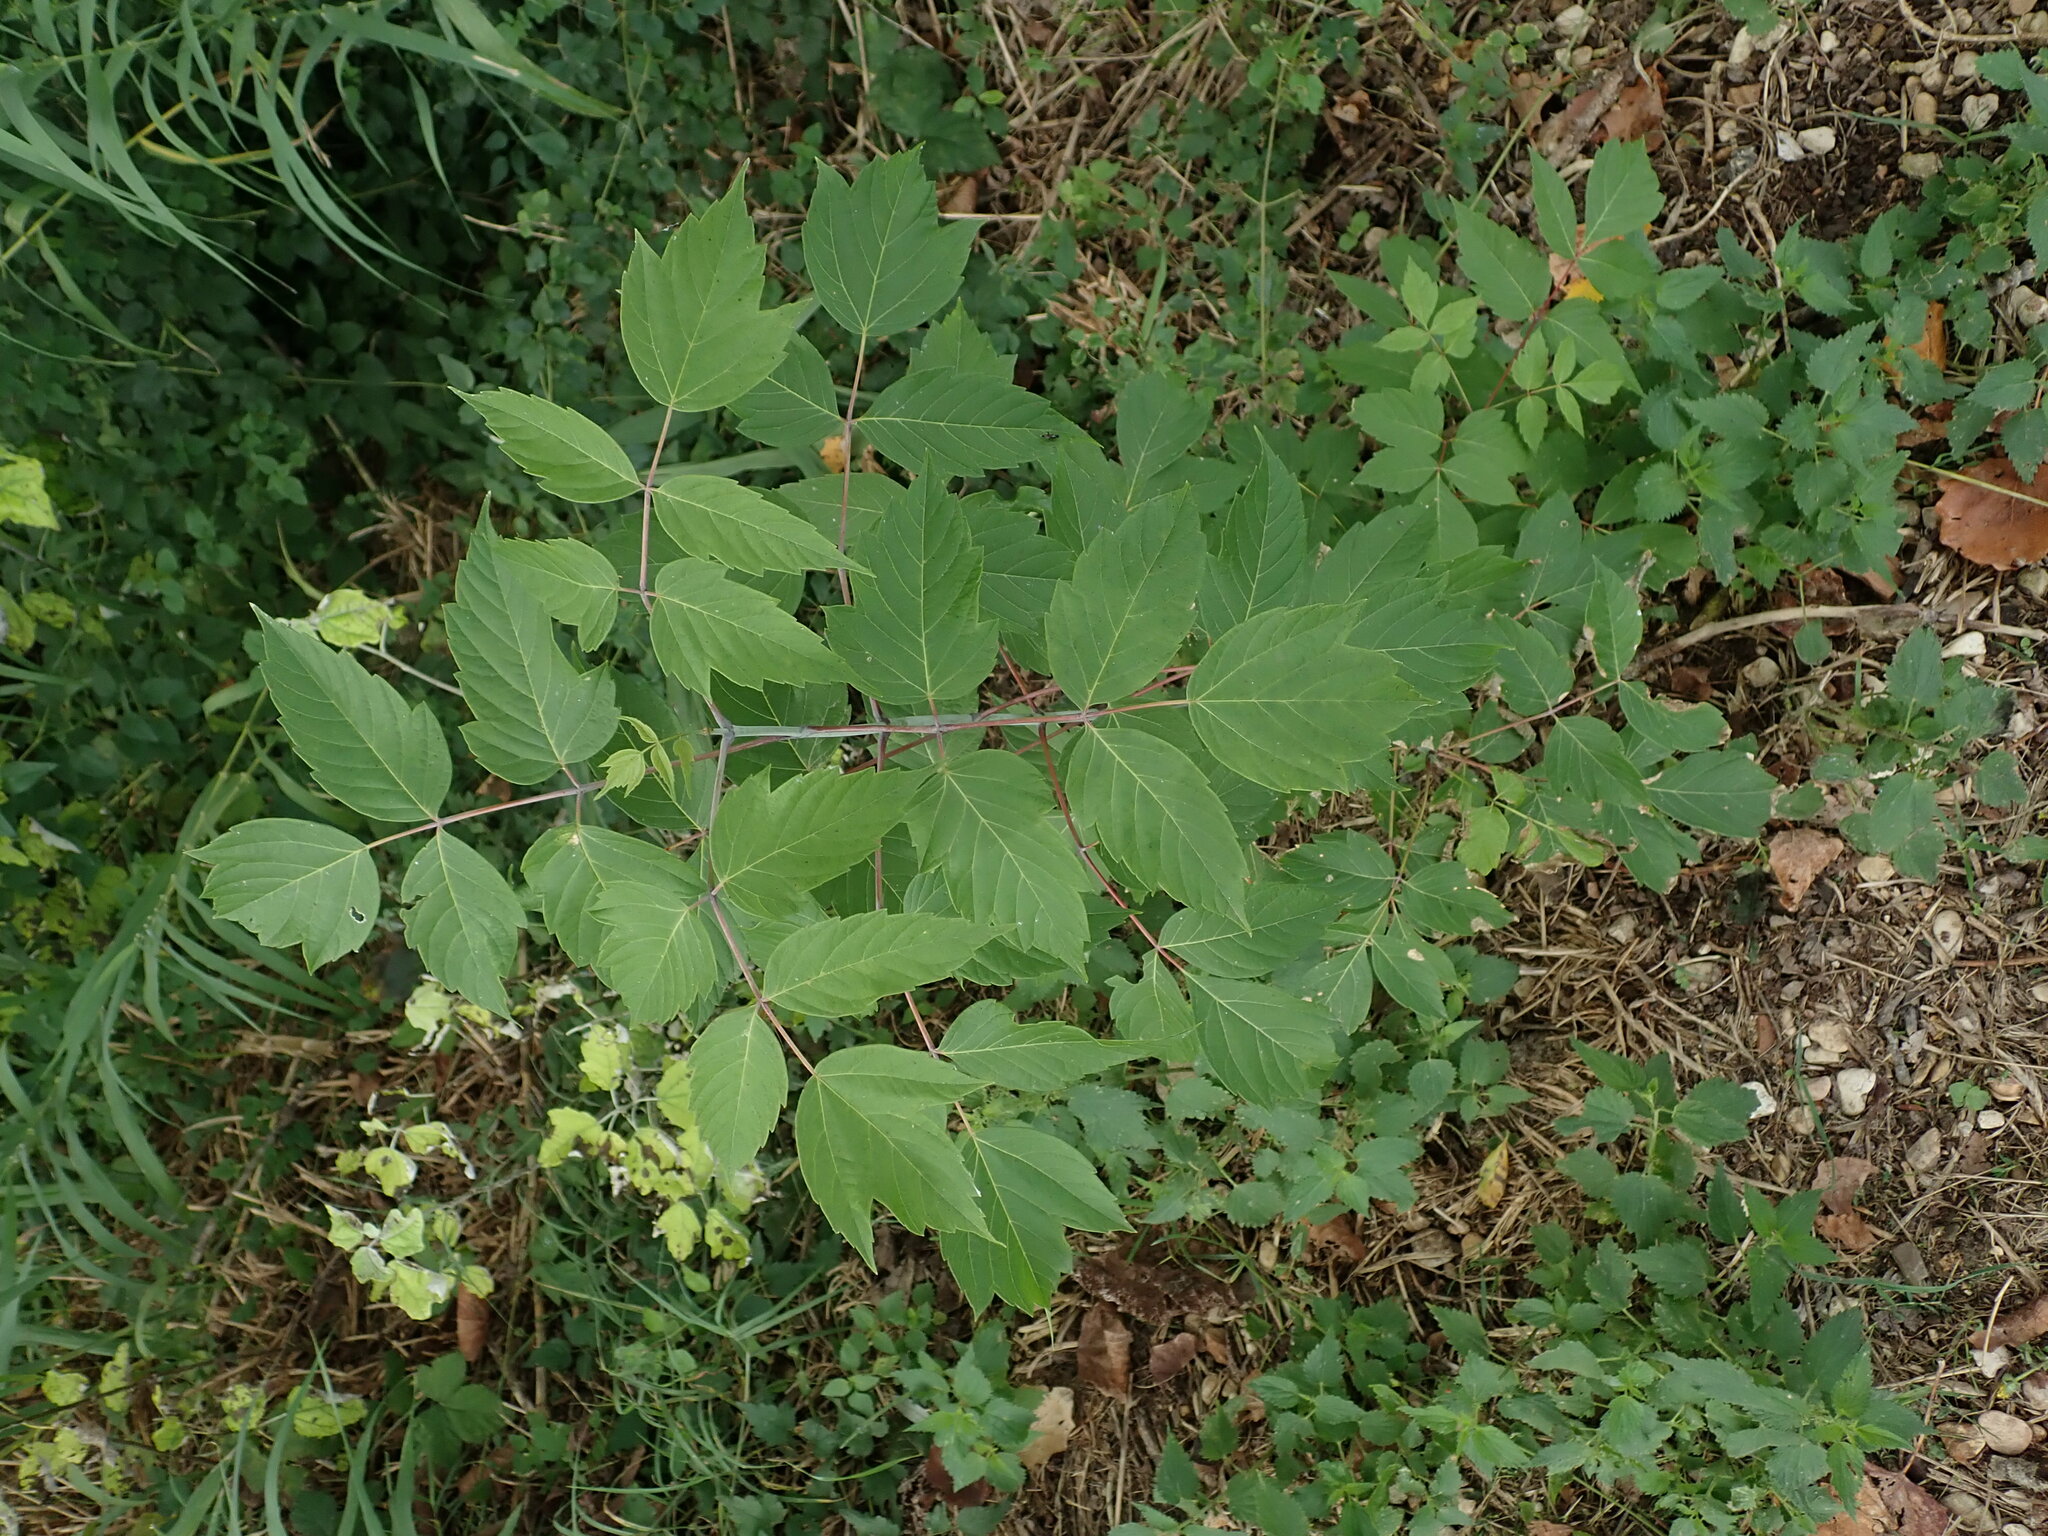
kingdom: Plantae
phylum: Tracheophyta
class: Magnoliopsida
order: Sapindales
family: Sapindaceae
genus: Acer
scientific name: Acer negundo
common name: Ashleaf maple
